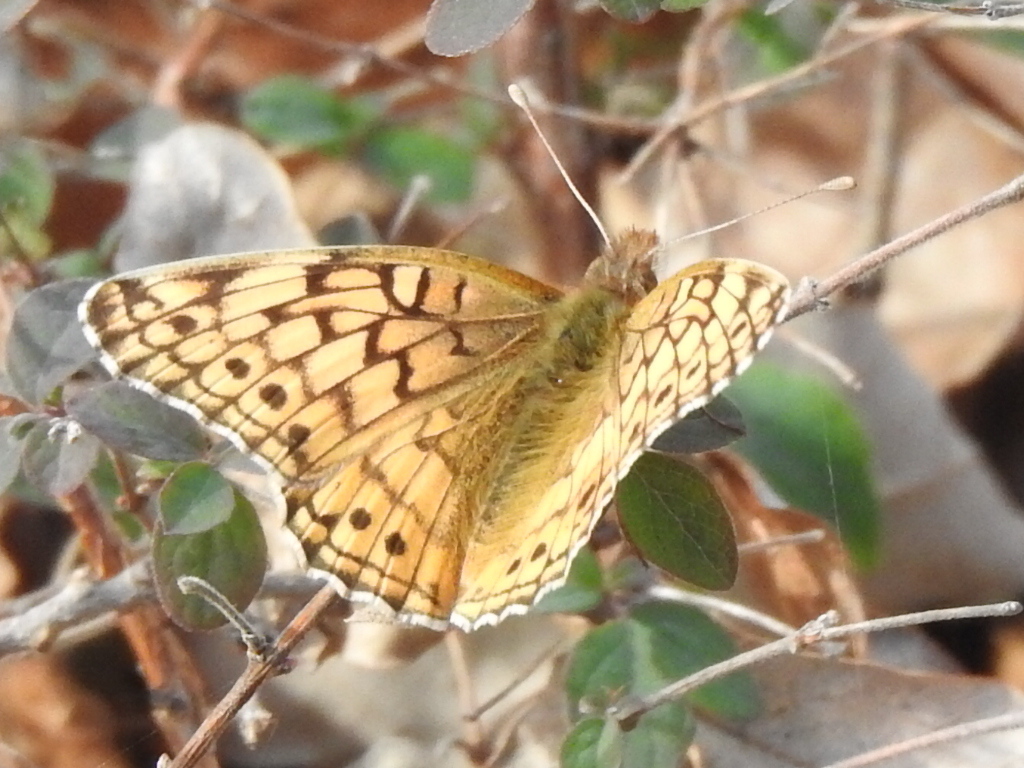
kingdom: Animalia
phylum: Arthropoda
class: Insecta
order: Lepidoptera
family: Nymphalidae
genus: Euptoieta
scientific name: Euptoieta claudia
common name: Variegated fritillary
